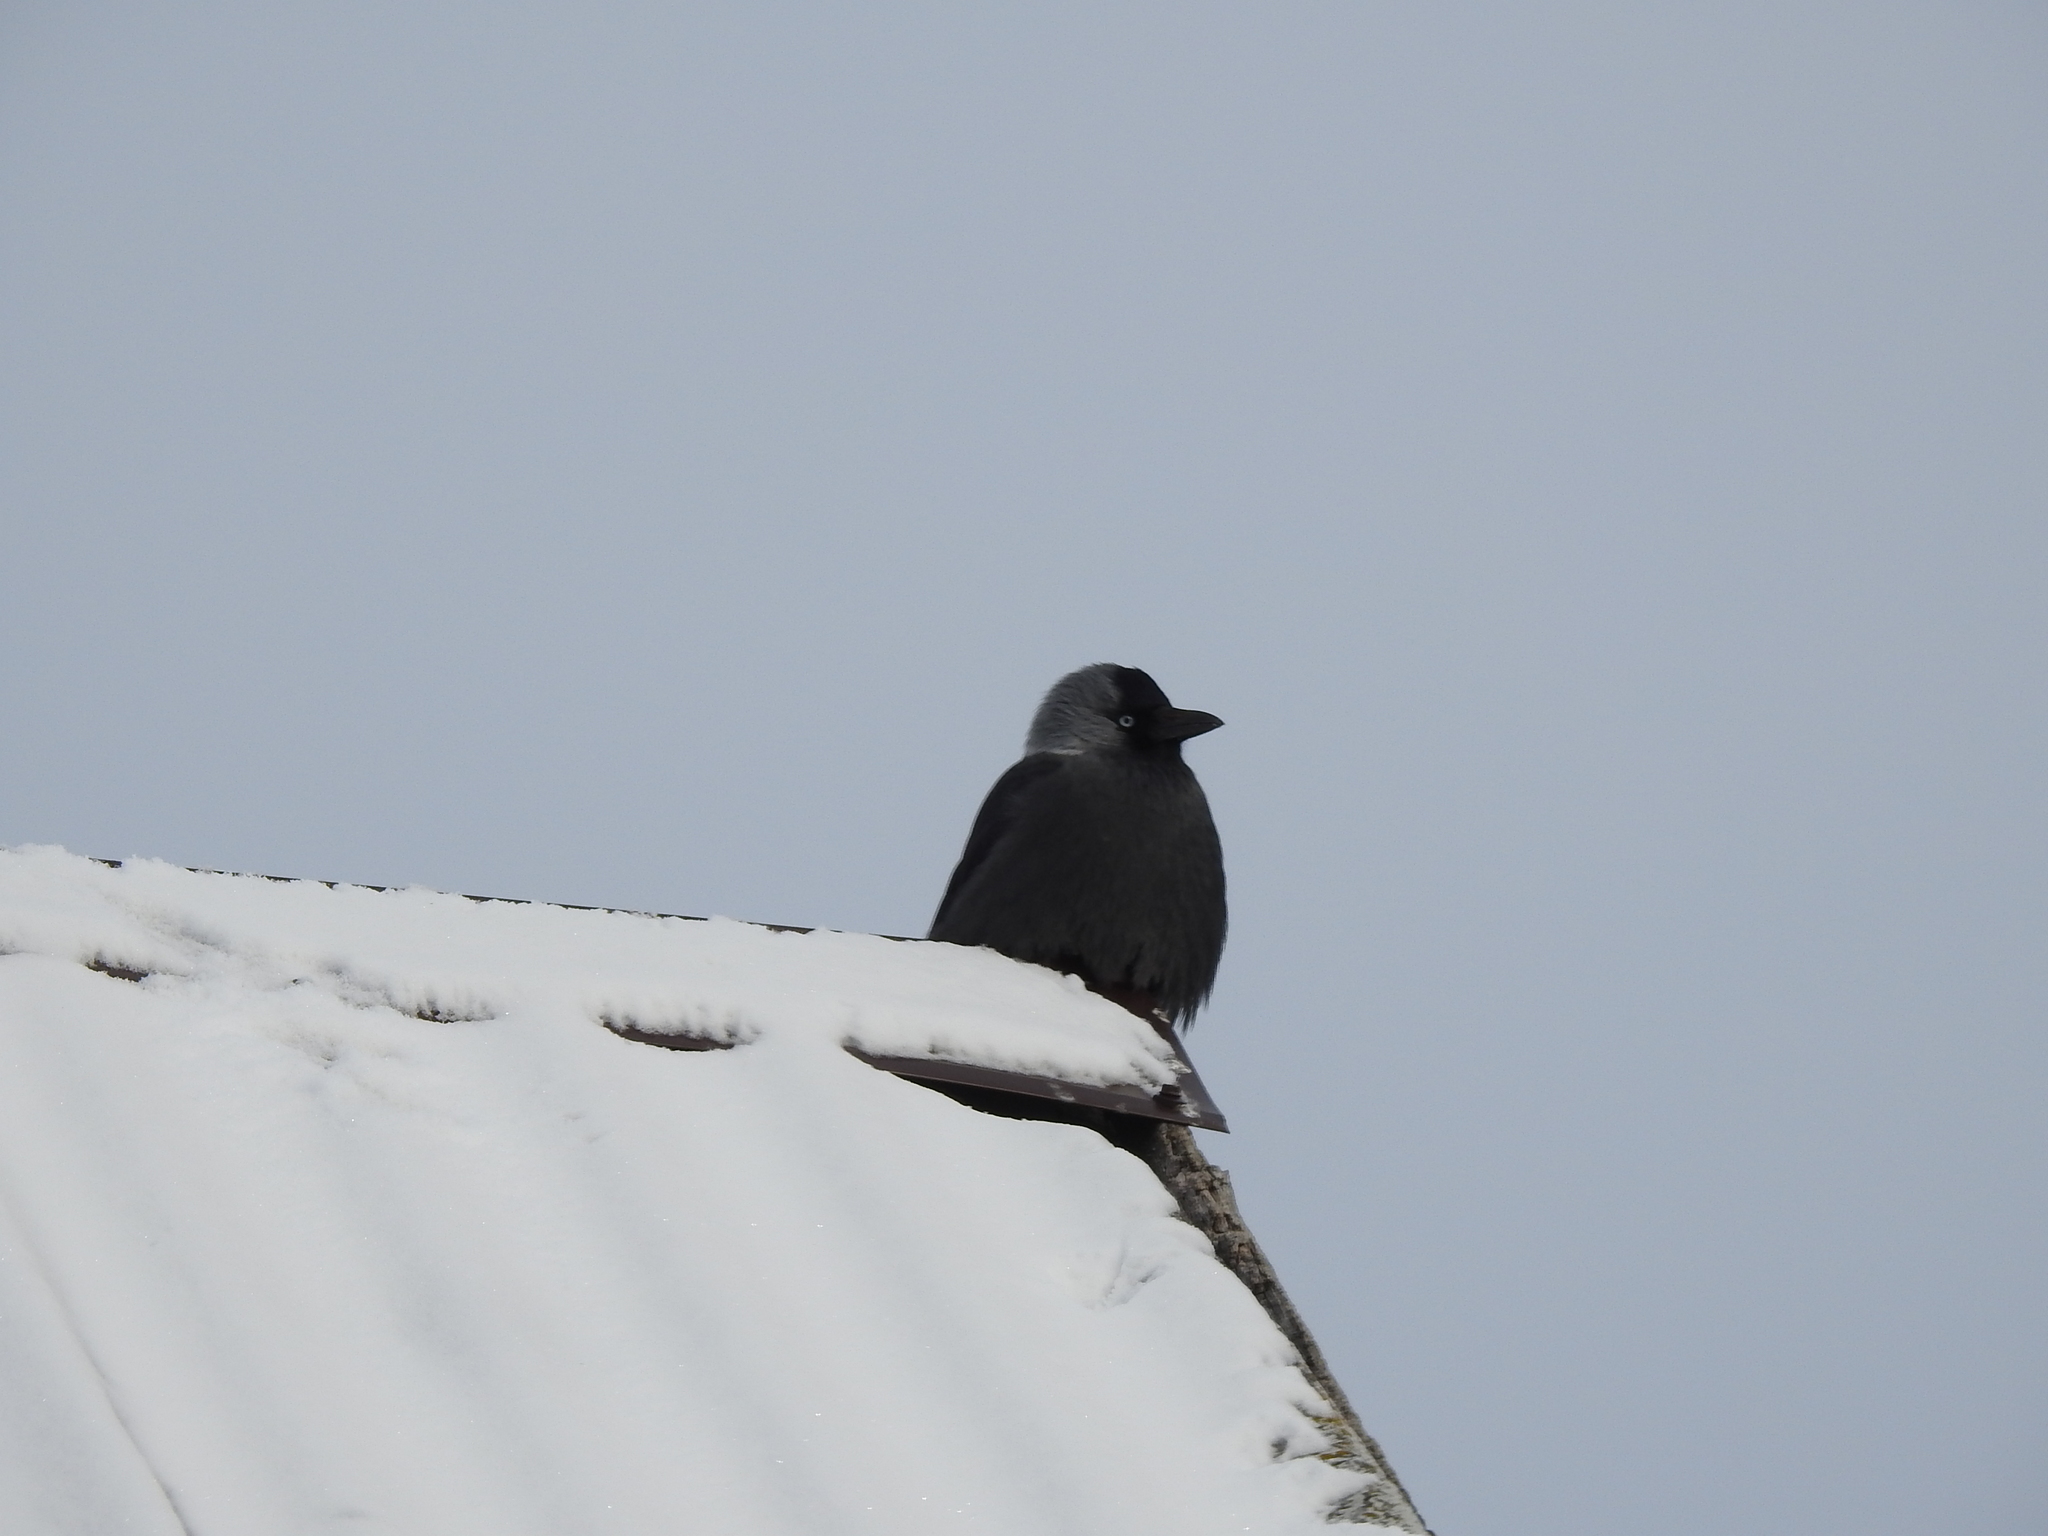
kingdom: Animalia
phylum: Chordata
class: Aves
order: Passeriformes
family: Corvidae
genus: Coloeus
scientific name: Coloeus monedula
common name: Western jackdaw
